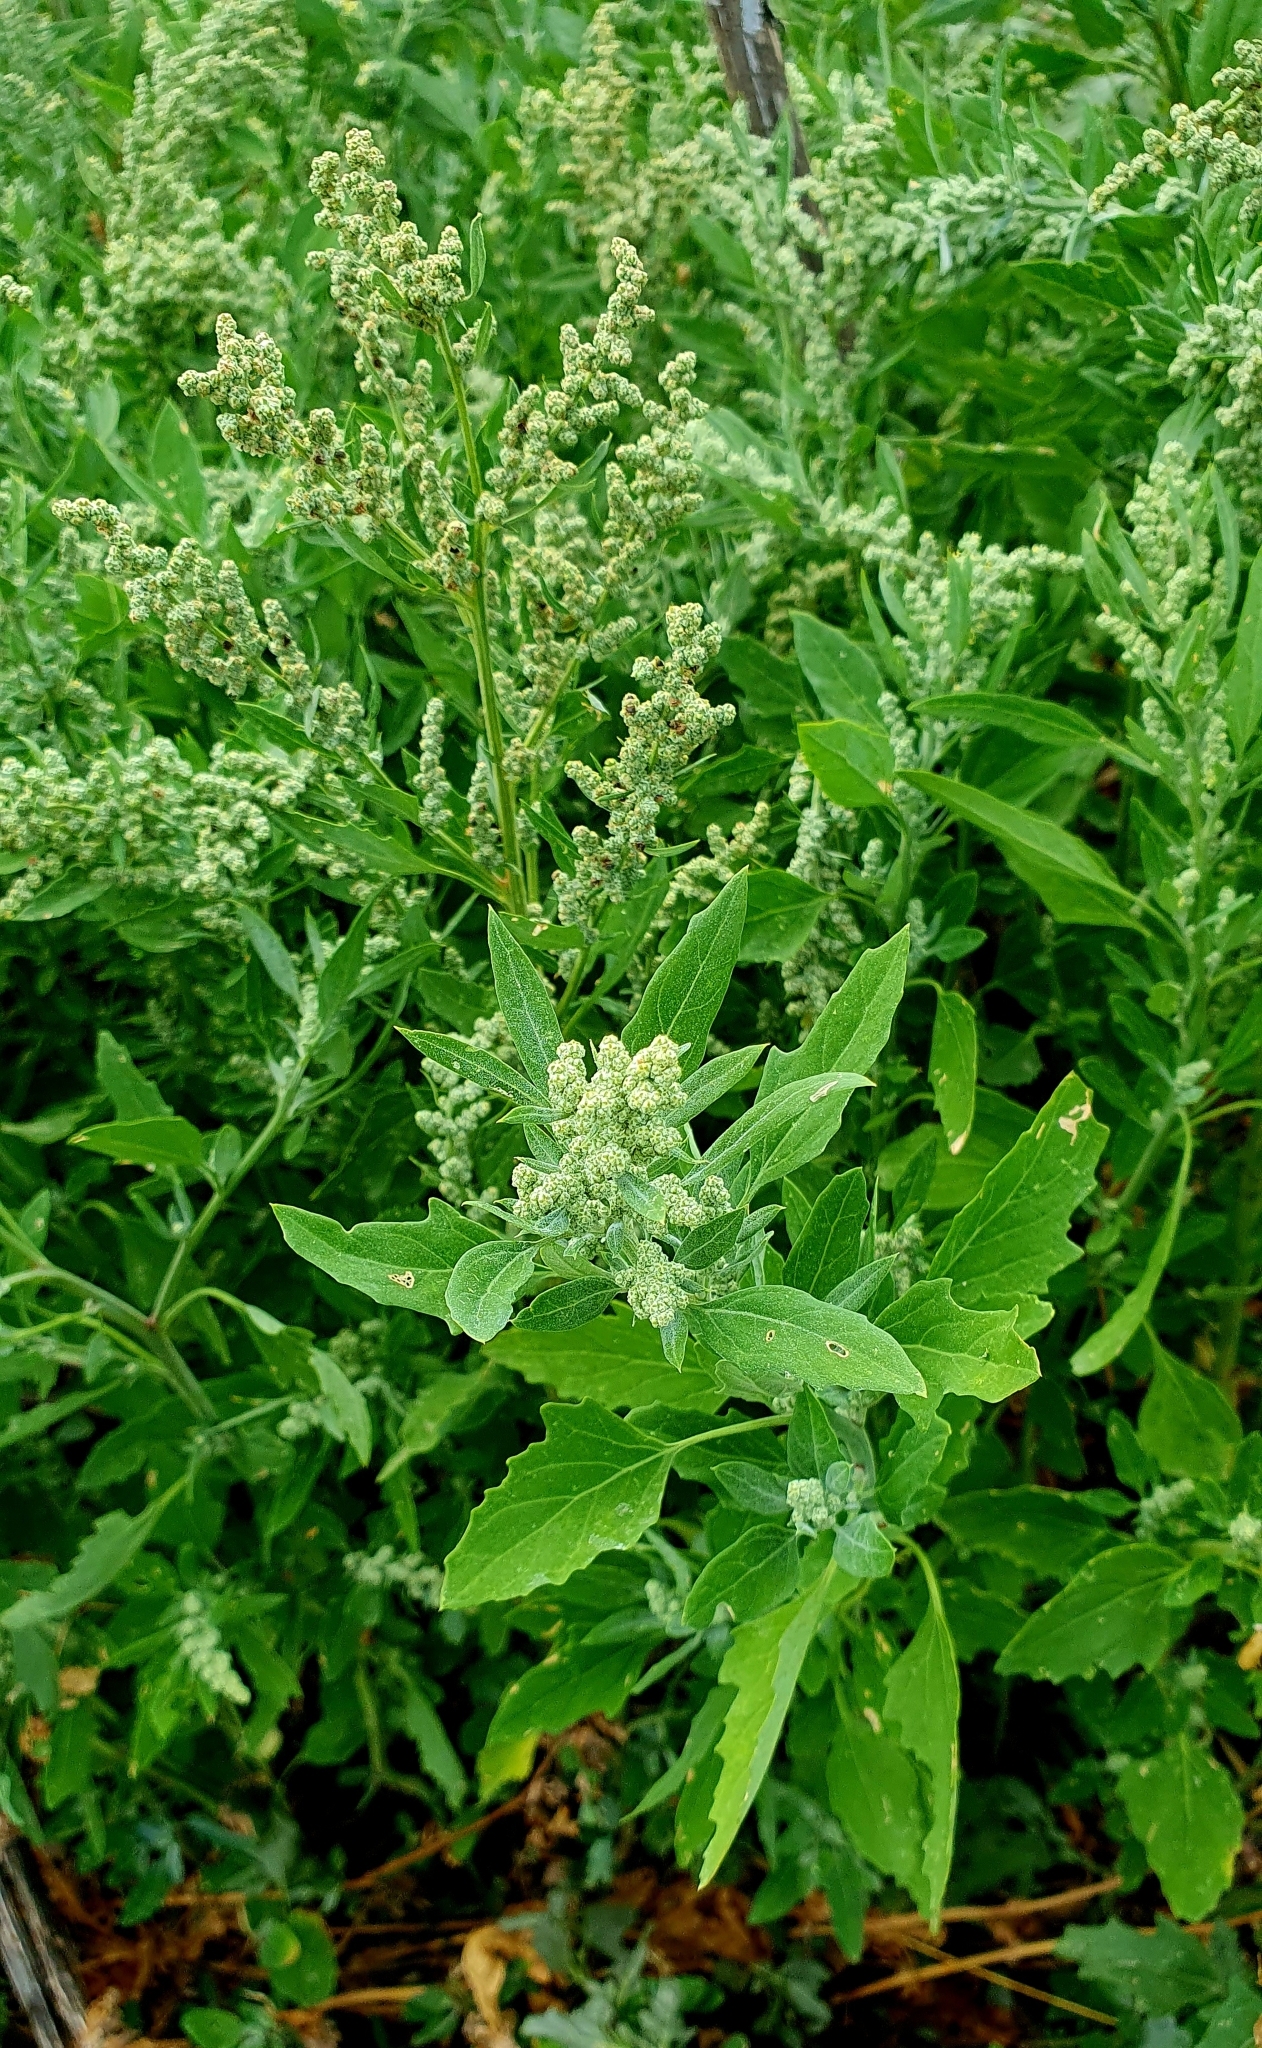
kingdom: Plantae
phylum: Tracheophyta
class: Magnoliopsida
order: Caryophyllales
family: Amaranthaceae
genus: Chenopodium
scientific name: Chenopodium album
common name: Fat-hen
